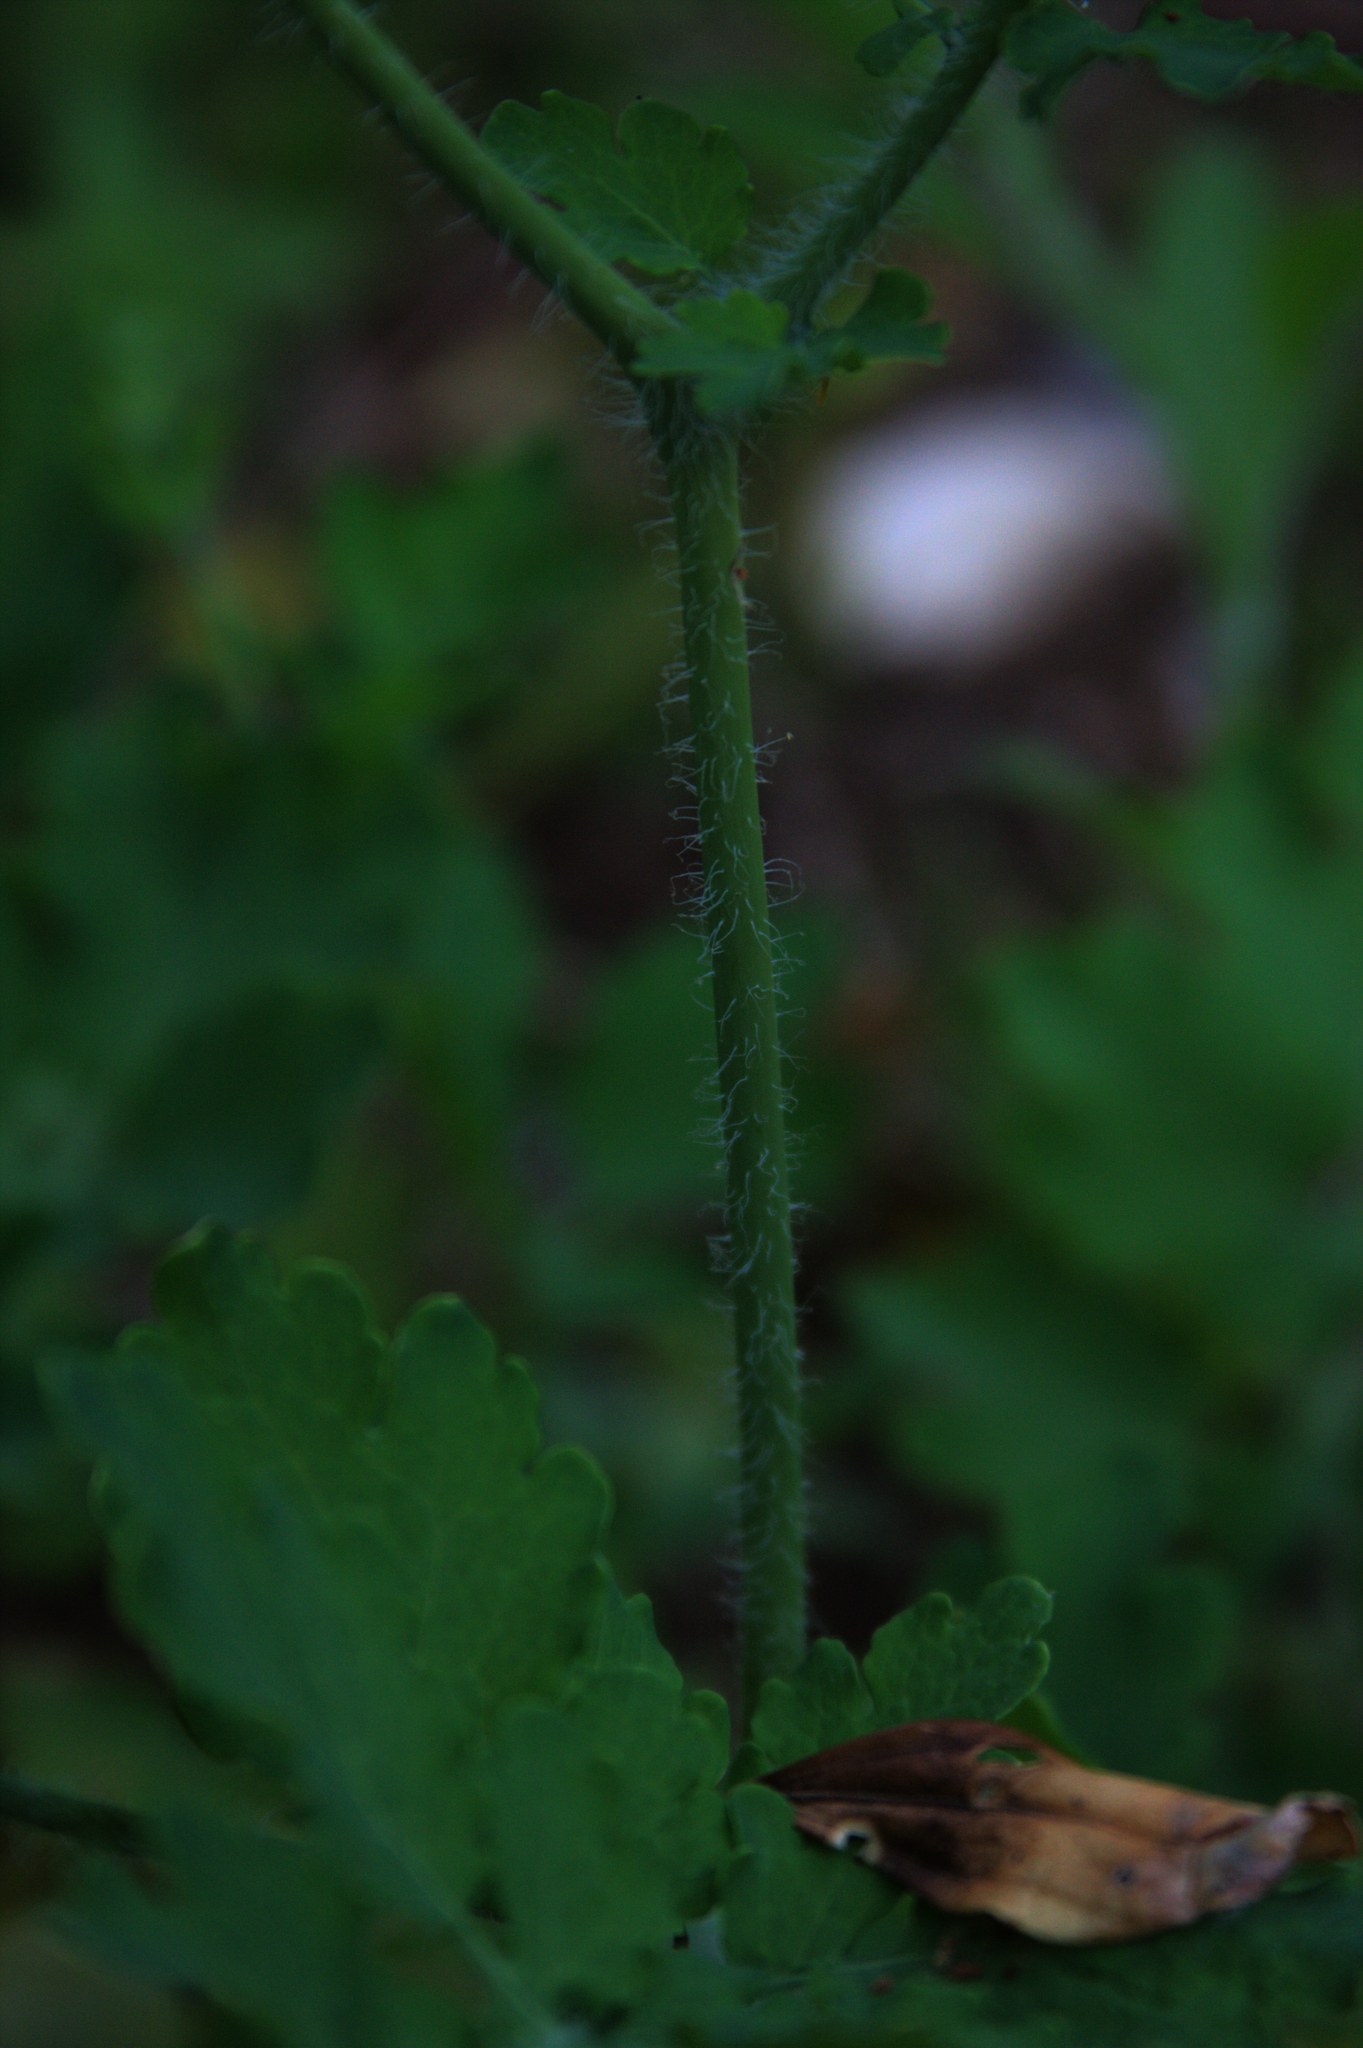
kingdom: Plantae
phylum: Tracheophyta
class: Magnoliopsida
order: Ranunculales
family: Papaveraceae
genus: Chelidonium
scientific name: Chelidonium majus
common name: Greater celandine
